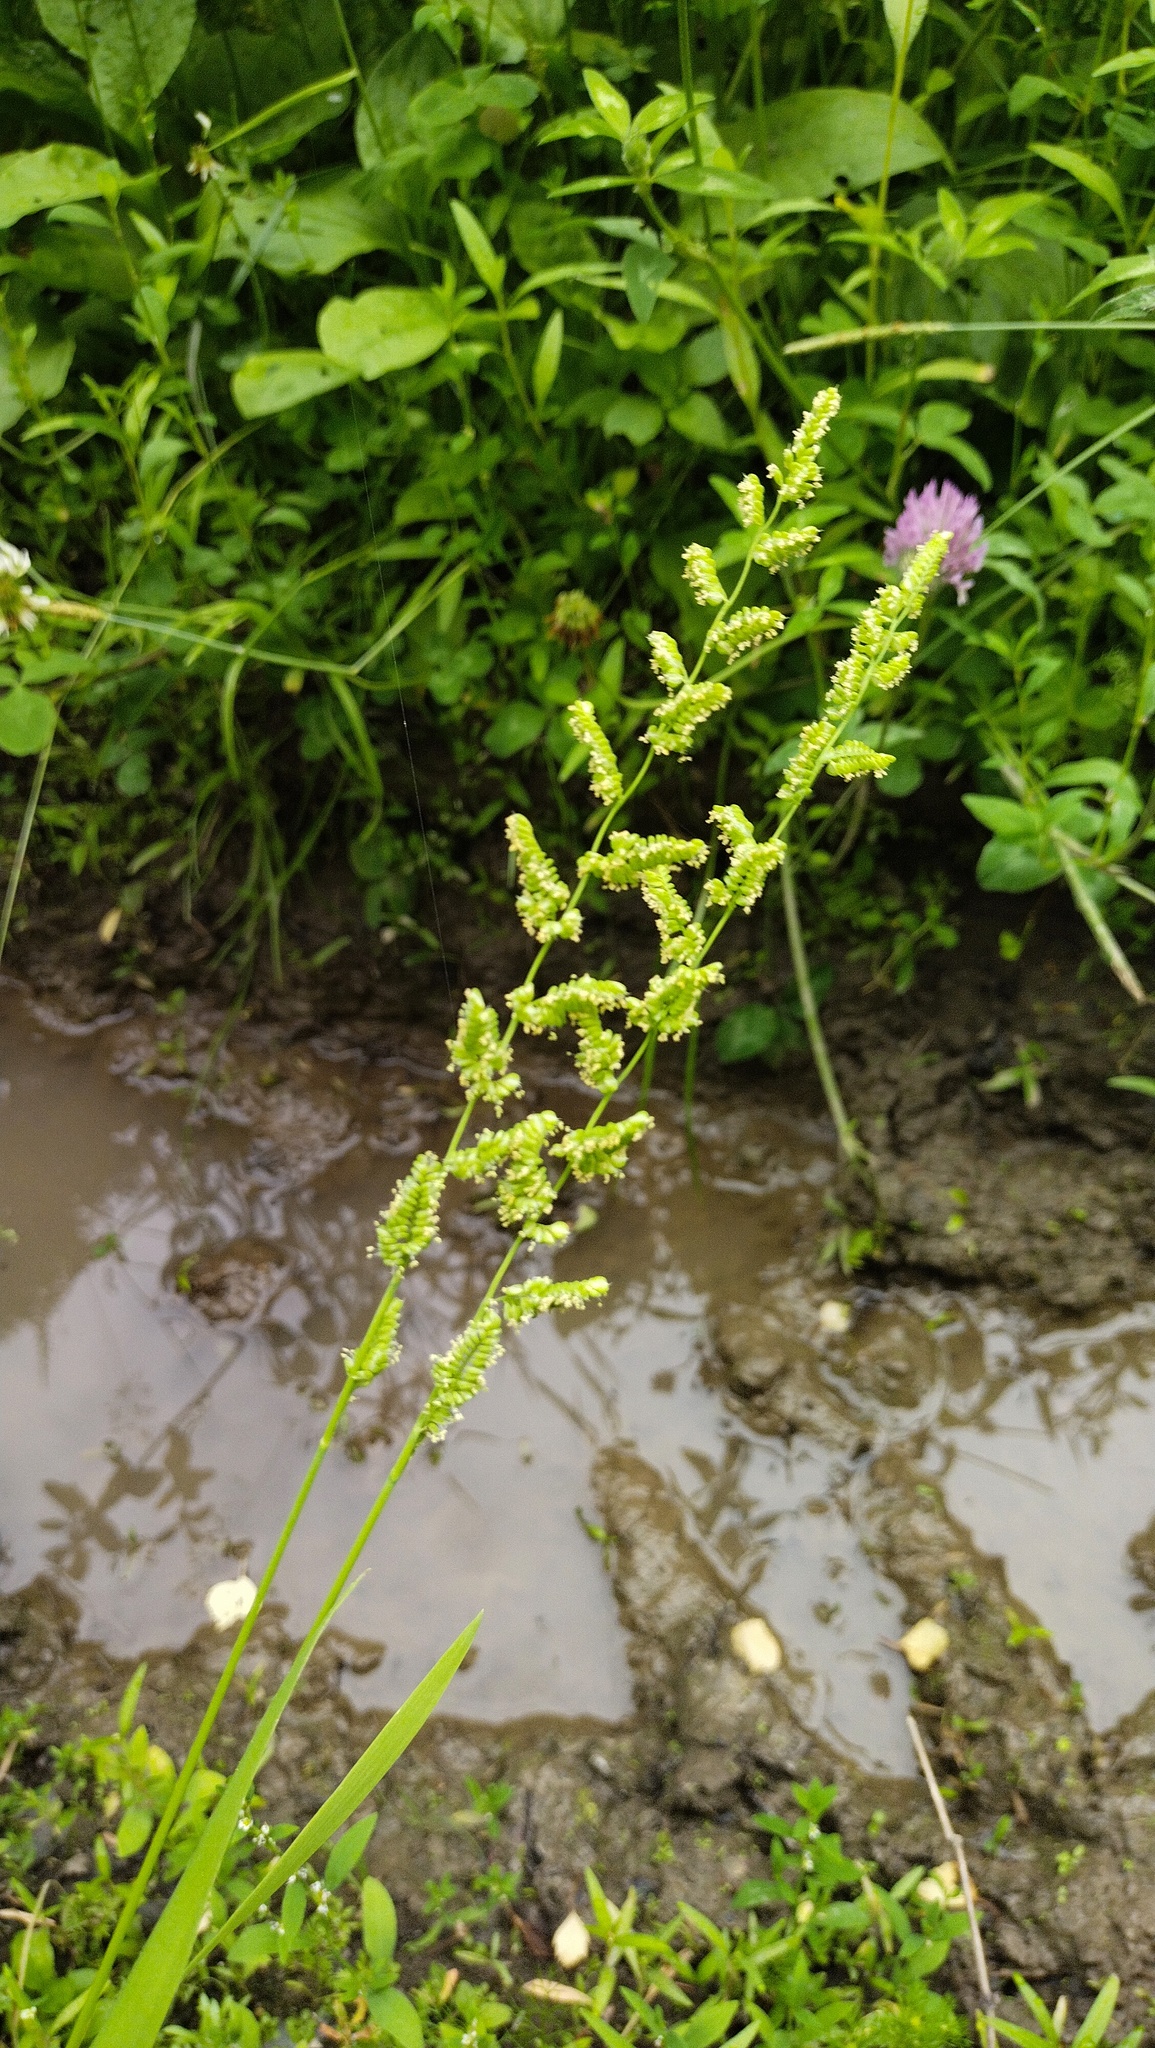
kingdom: Plantae
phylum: Tracheophyta
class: Liliopsida
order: Poales
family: Poaceae
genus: Beckmannia
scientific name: Beckmannia syzigachne
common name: American slough-grass
